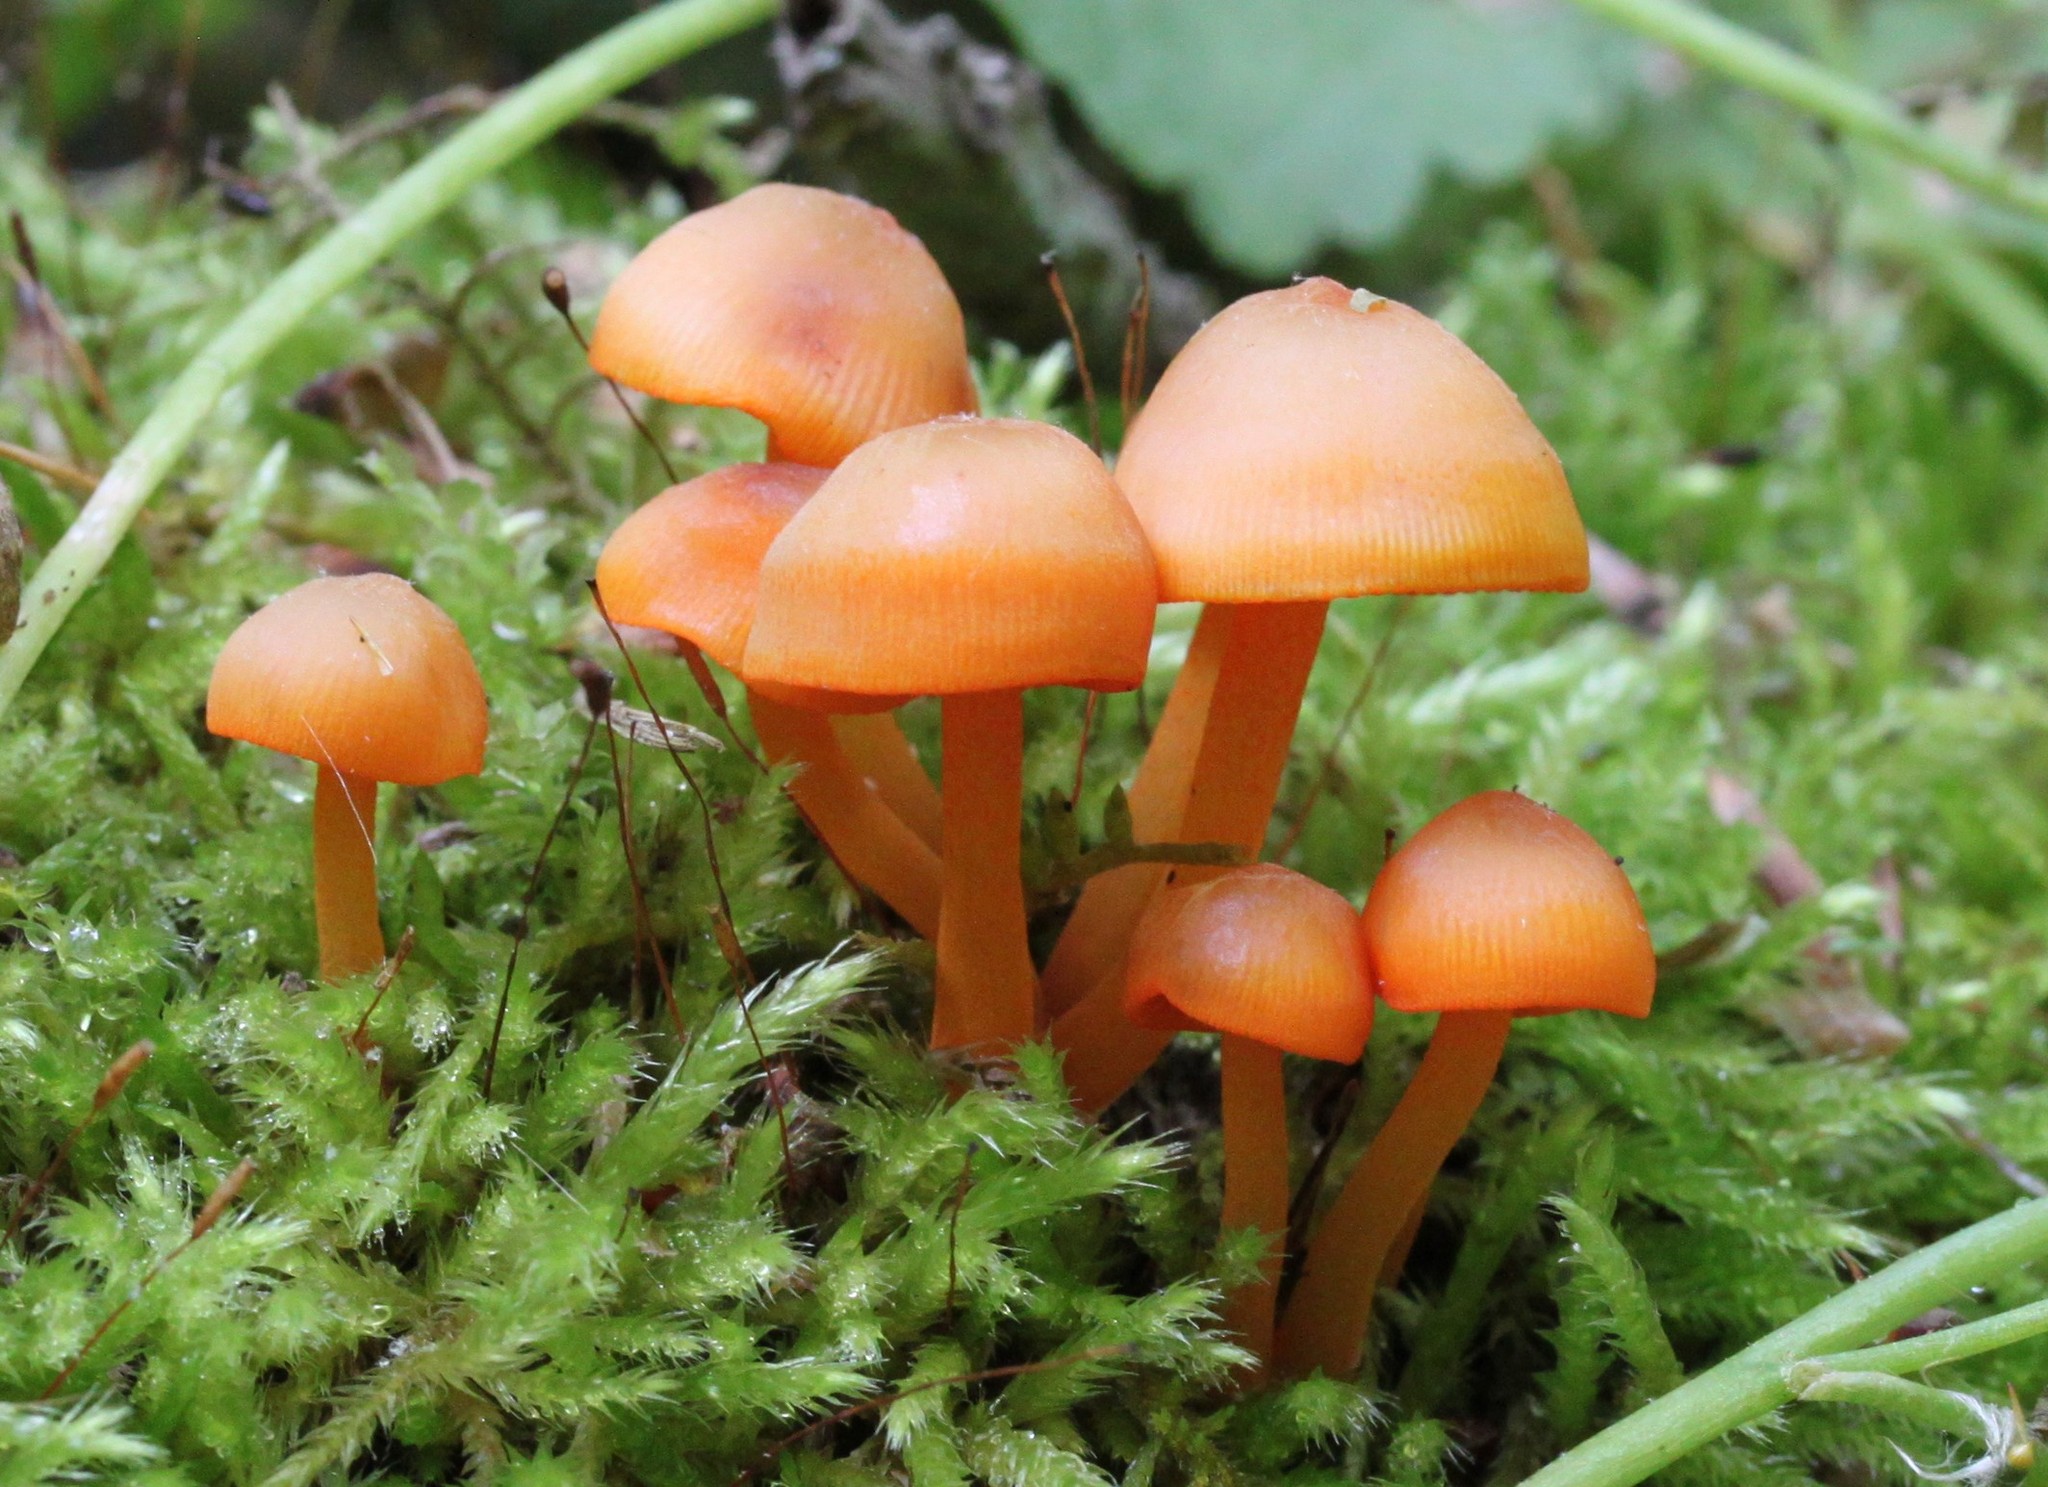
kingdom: Fungi
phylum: Basidiomycota
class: Agaricomycetes
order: Agaricales
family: Mycenaceae
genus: Mycena
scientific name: Mycena leaiana
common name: Orange mycena
